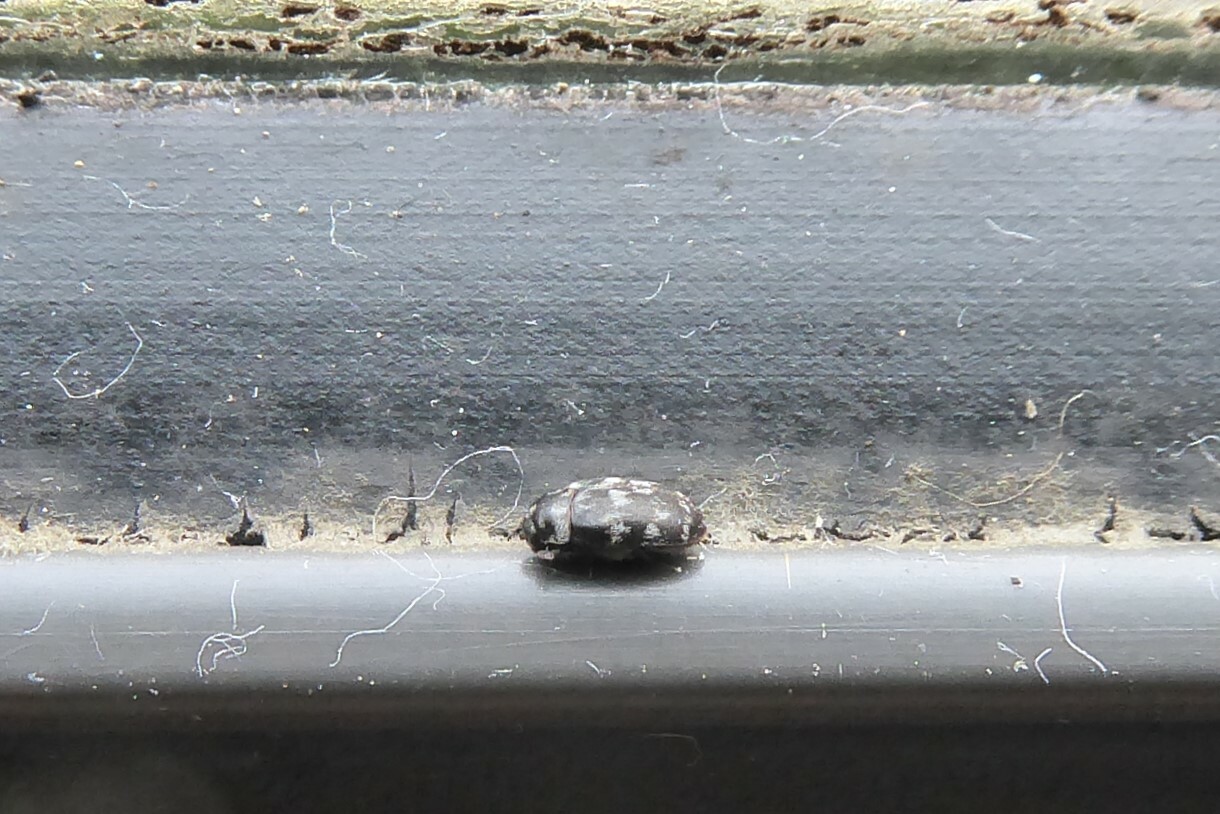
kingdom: Animalia
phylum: Arthropoda
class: Insecta
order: Coleoptera
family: Dermestidae
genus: Anthrenocerus
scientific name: Anthrenocerus australis
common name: Australian carpet beetle
